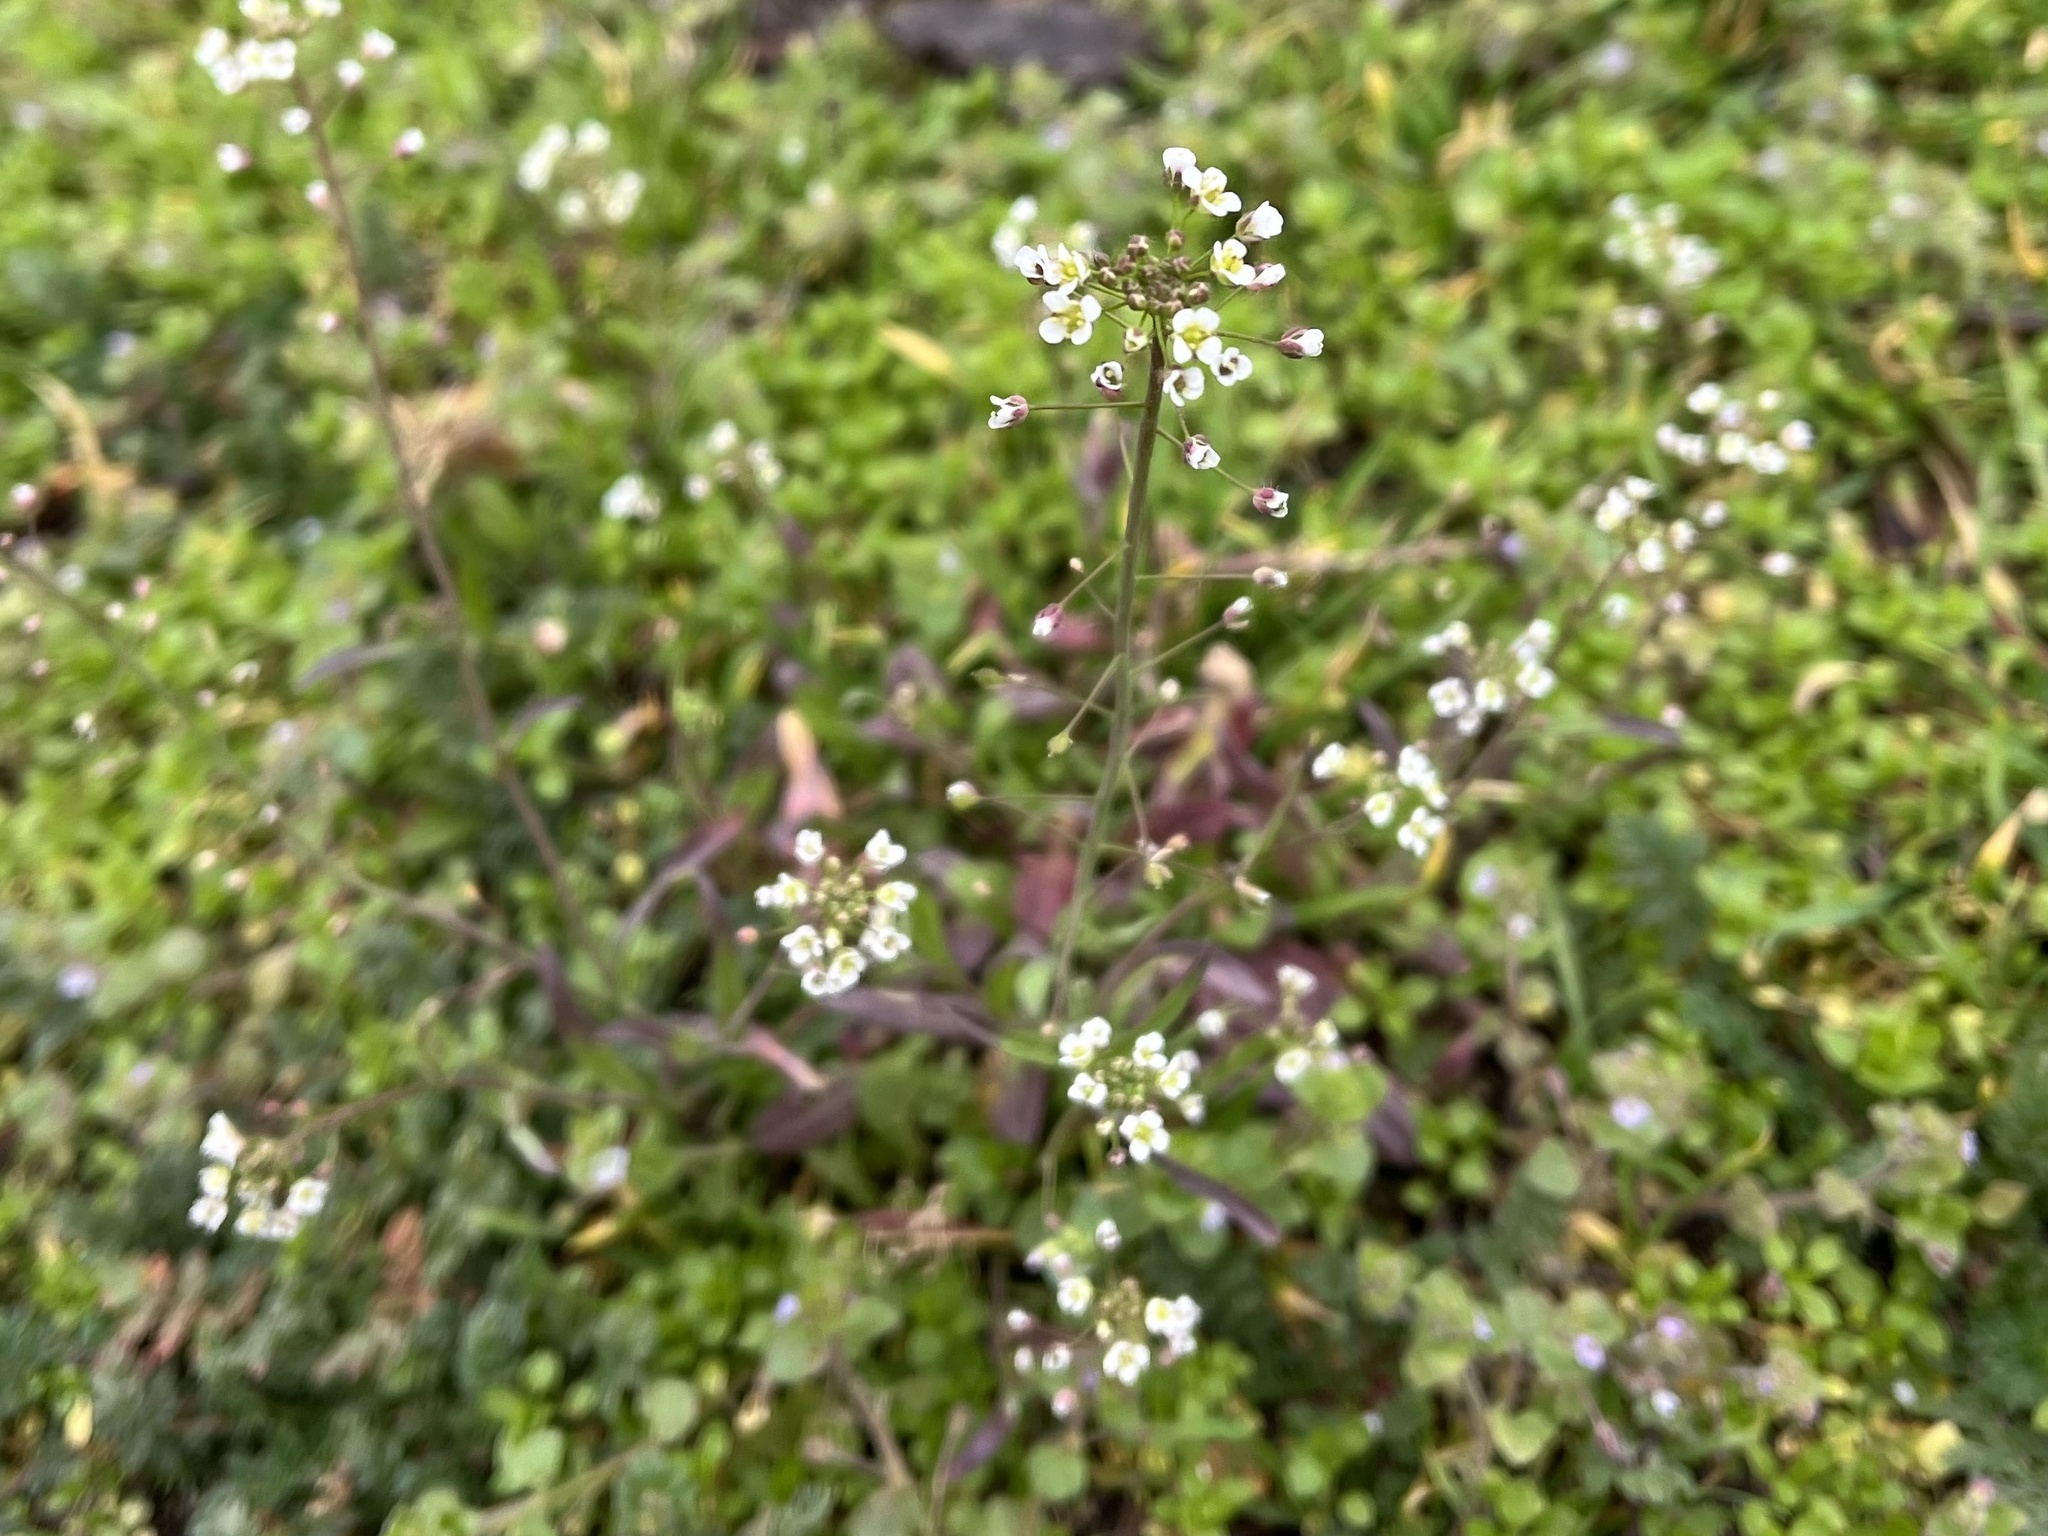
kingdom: Plantae
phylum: Tracheophyta
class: Magnoliopsida
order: Brassicales
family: Brassicaceae
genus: Capsella
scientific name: Capsella bursa-pastoris
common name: Shepherd's purse
